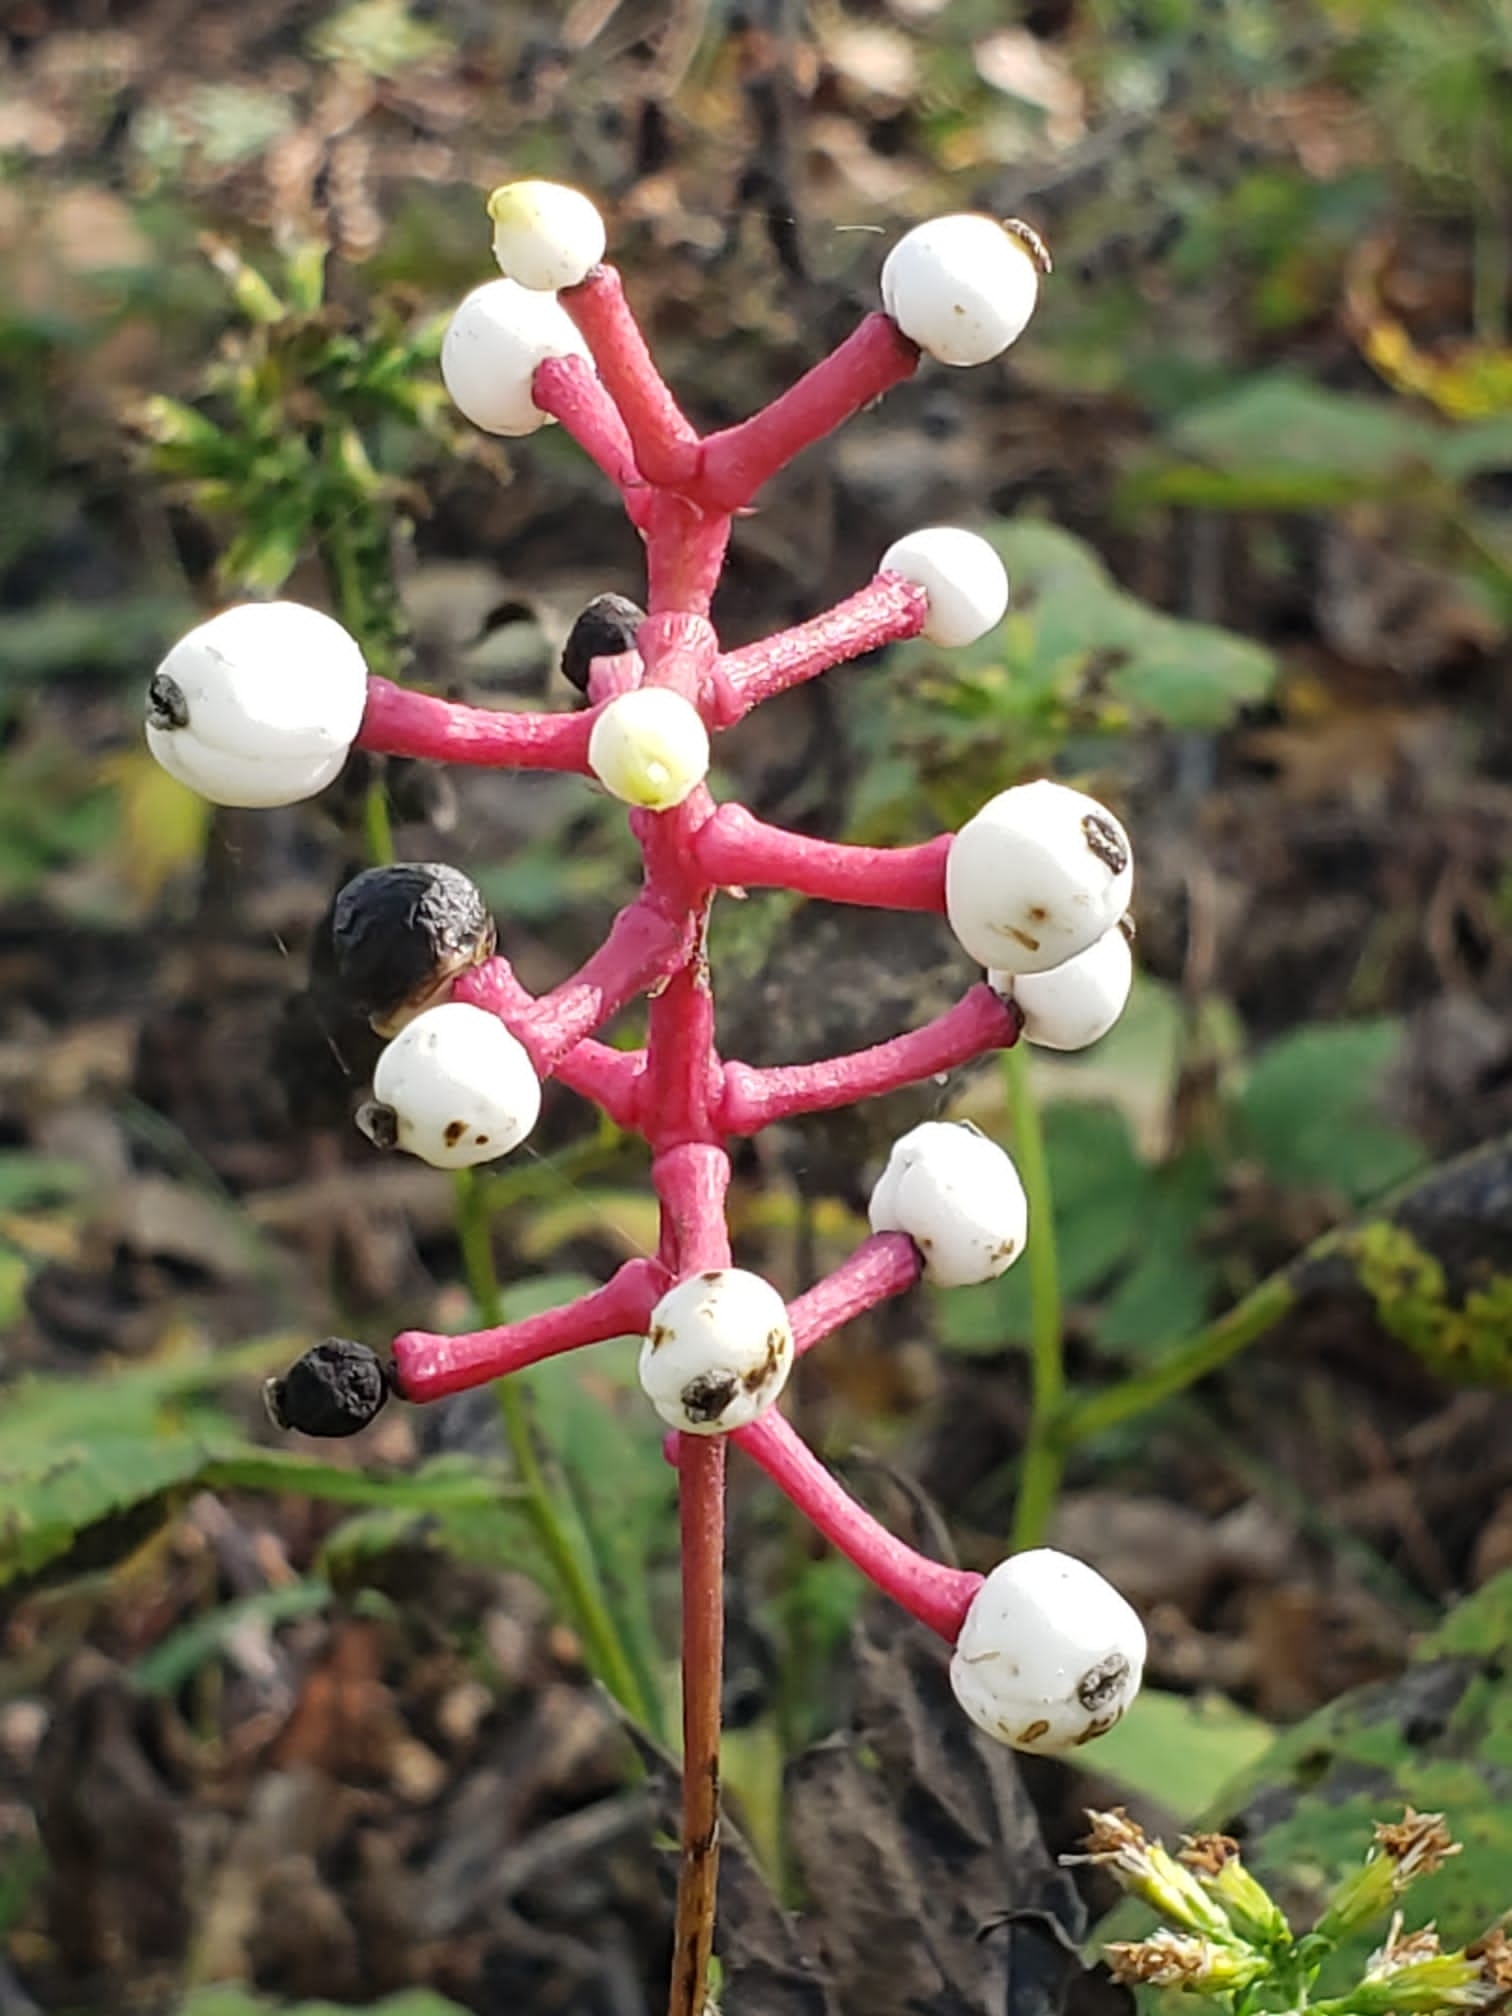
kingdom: Plantae
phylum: Tracheophyta
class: Magnoliopsida
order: Ranunculales
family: Ranunculaceae
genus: Actaea
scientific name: Actaea pachypoda
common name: Doll's-eyes
